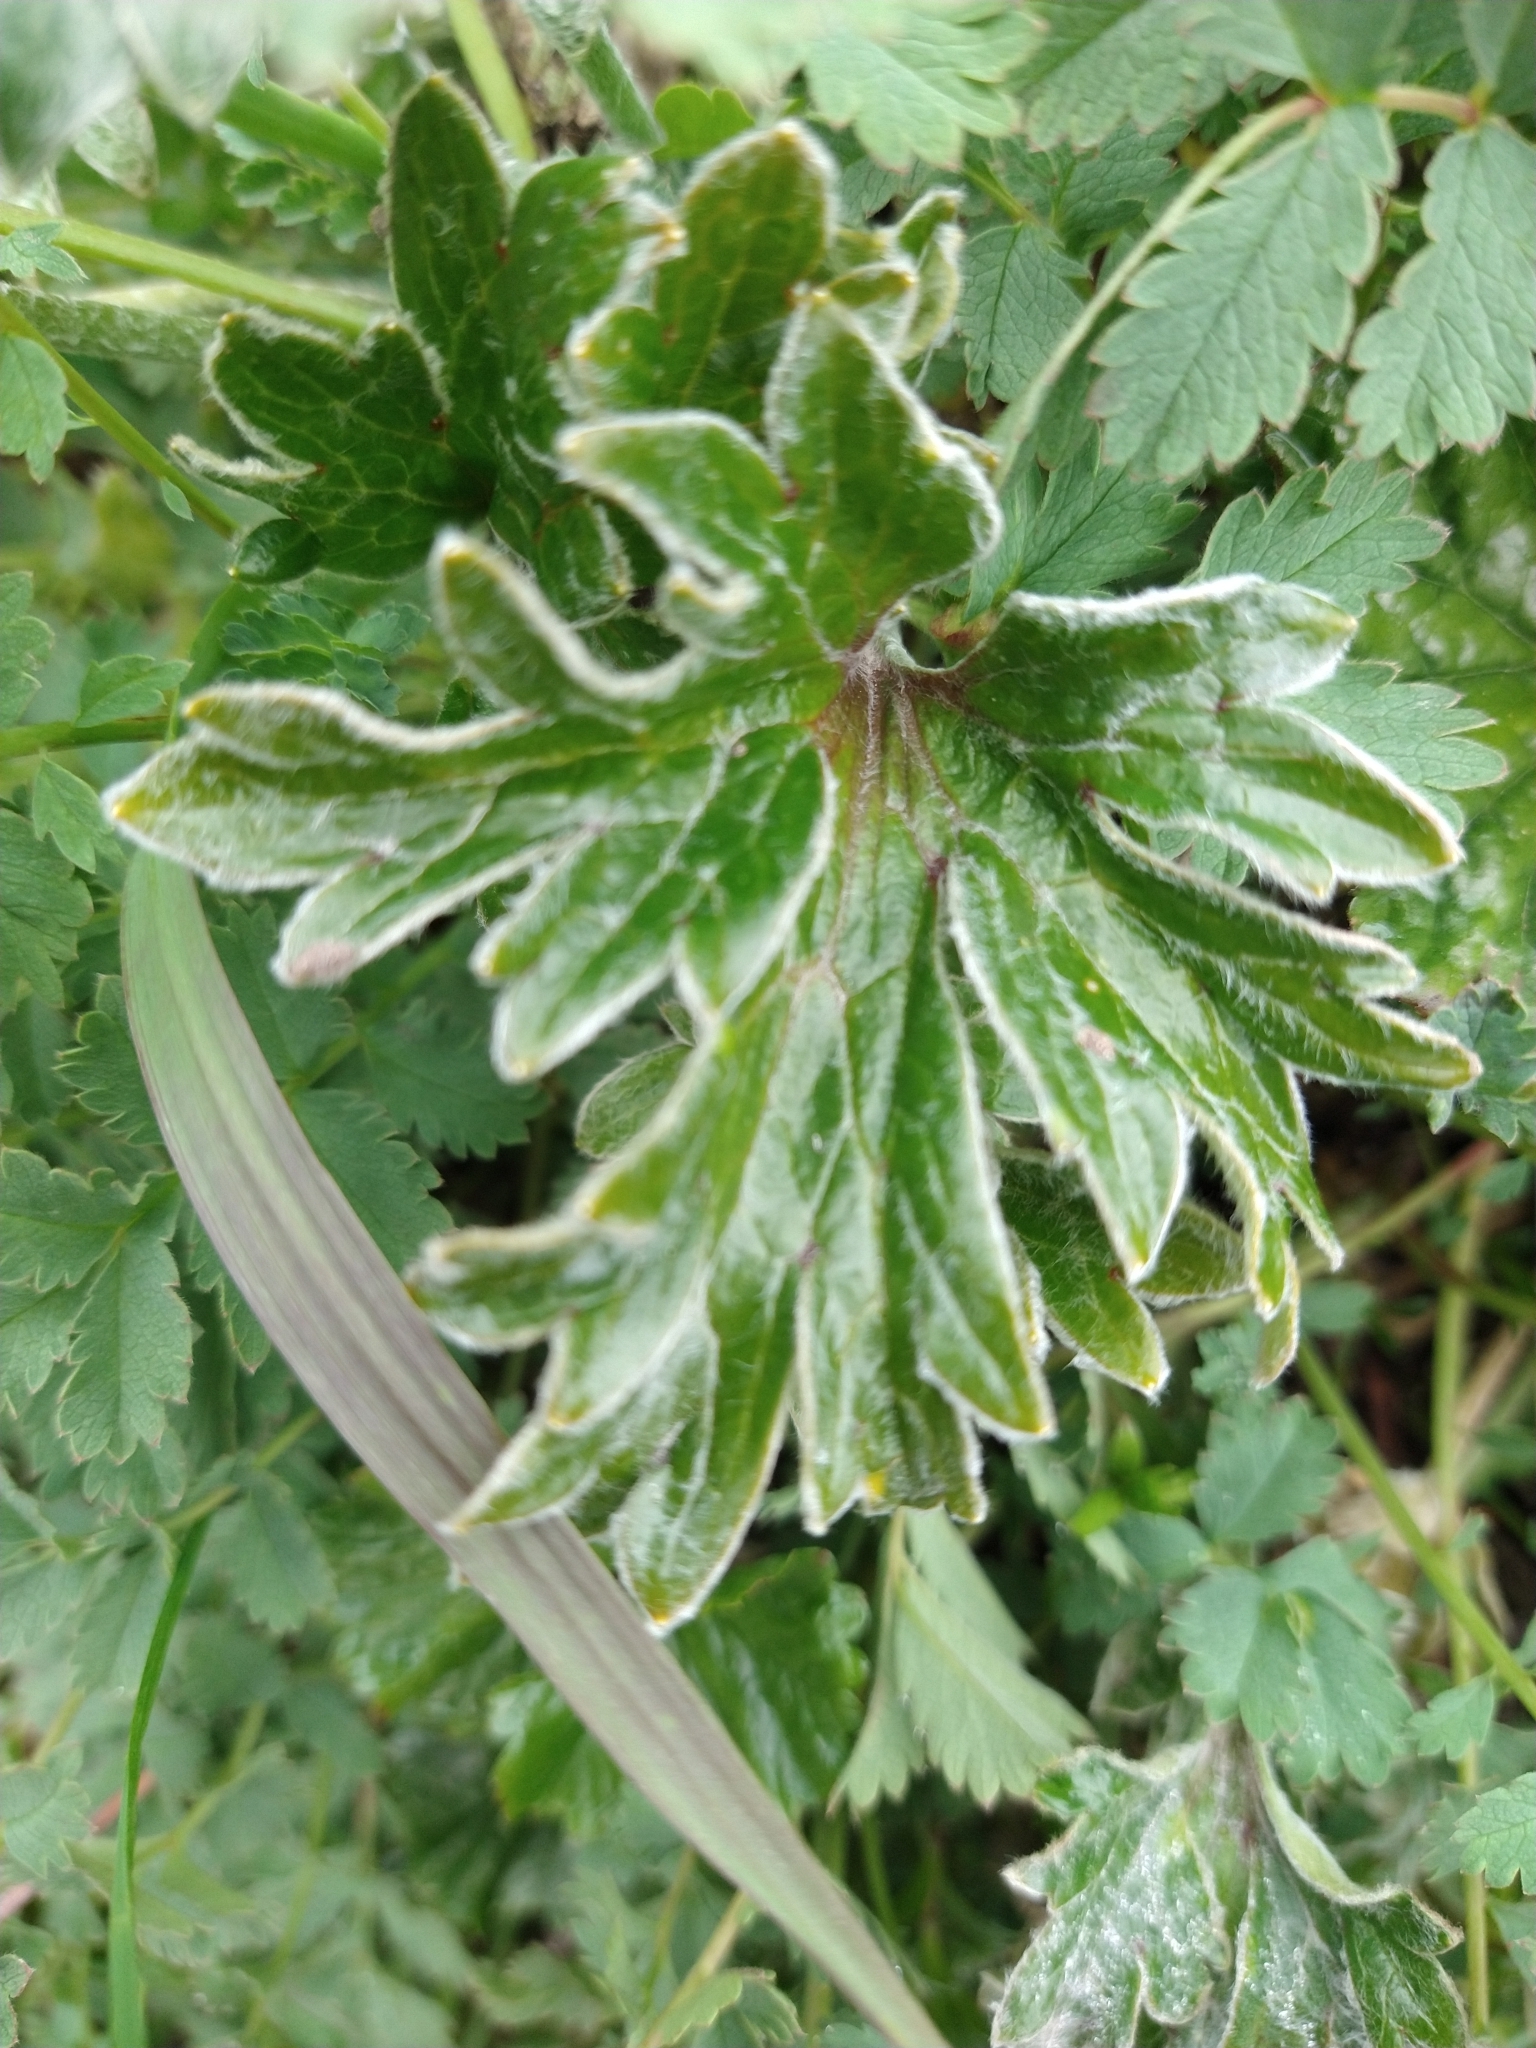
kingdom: Plantae
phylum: Tracheophyta
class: Magnoliopsida
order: Ranunculales
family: Ranunculaceae
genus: Hamadryas
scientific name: Hamadryas magellanica
